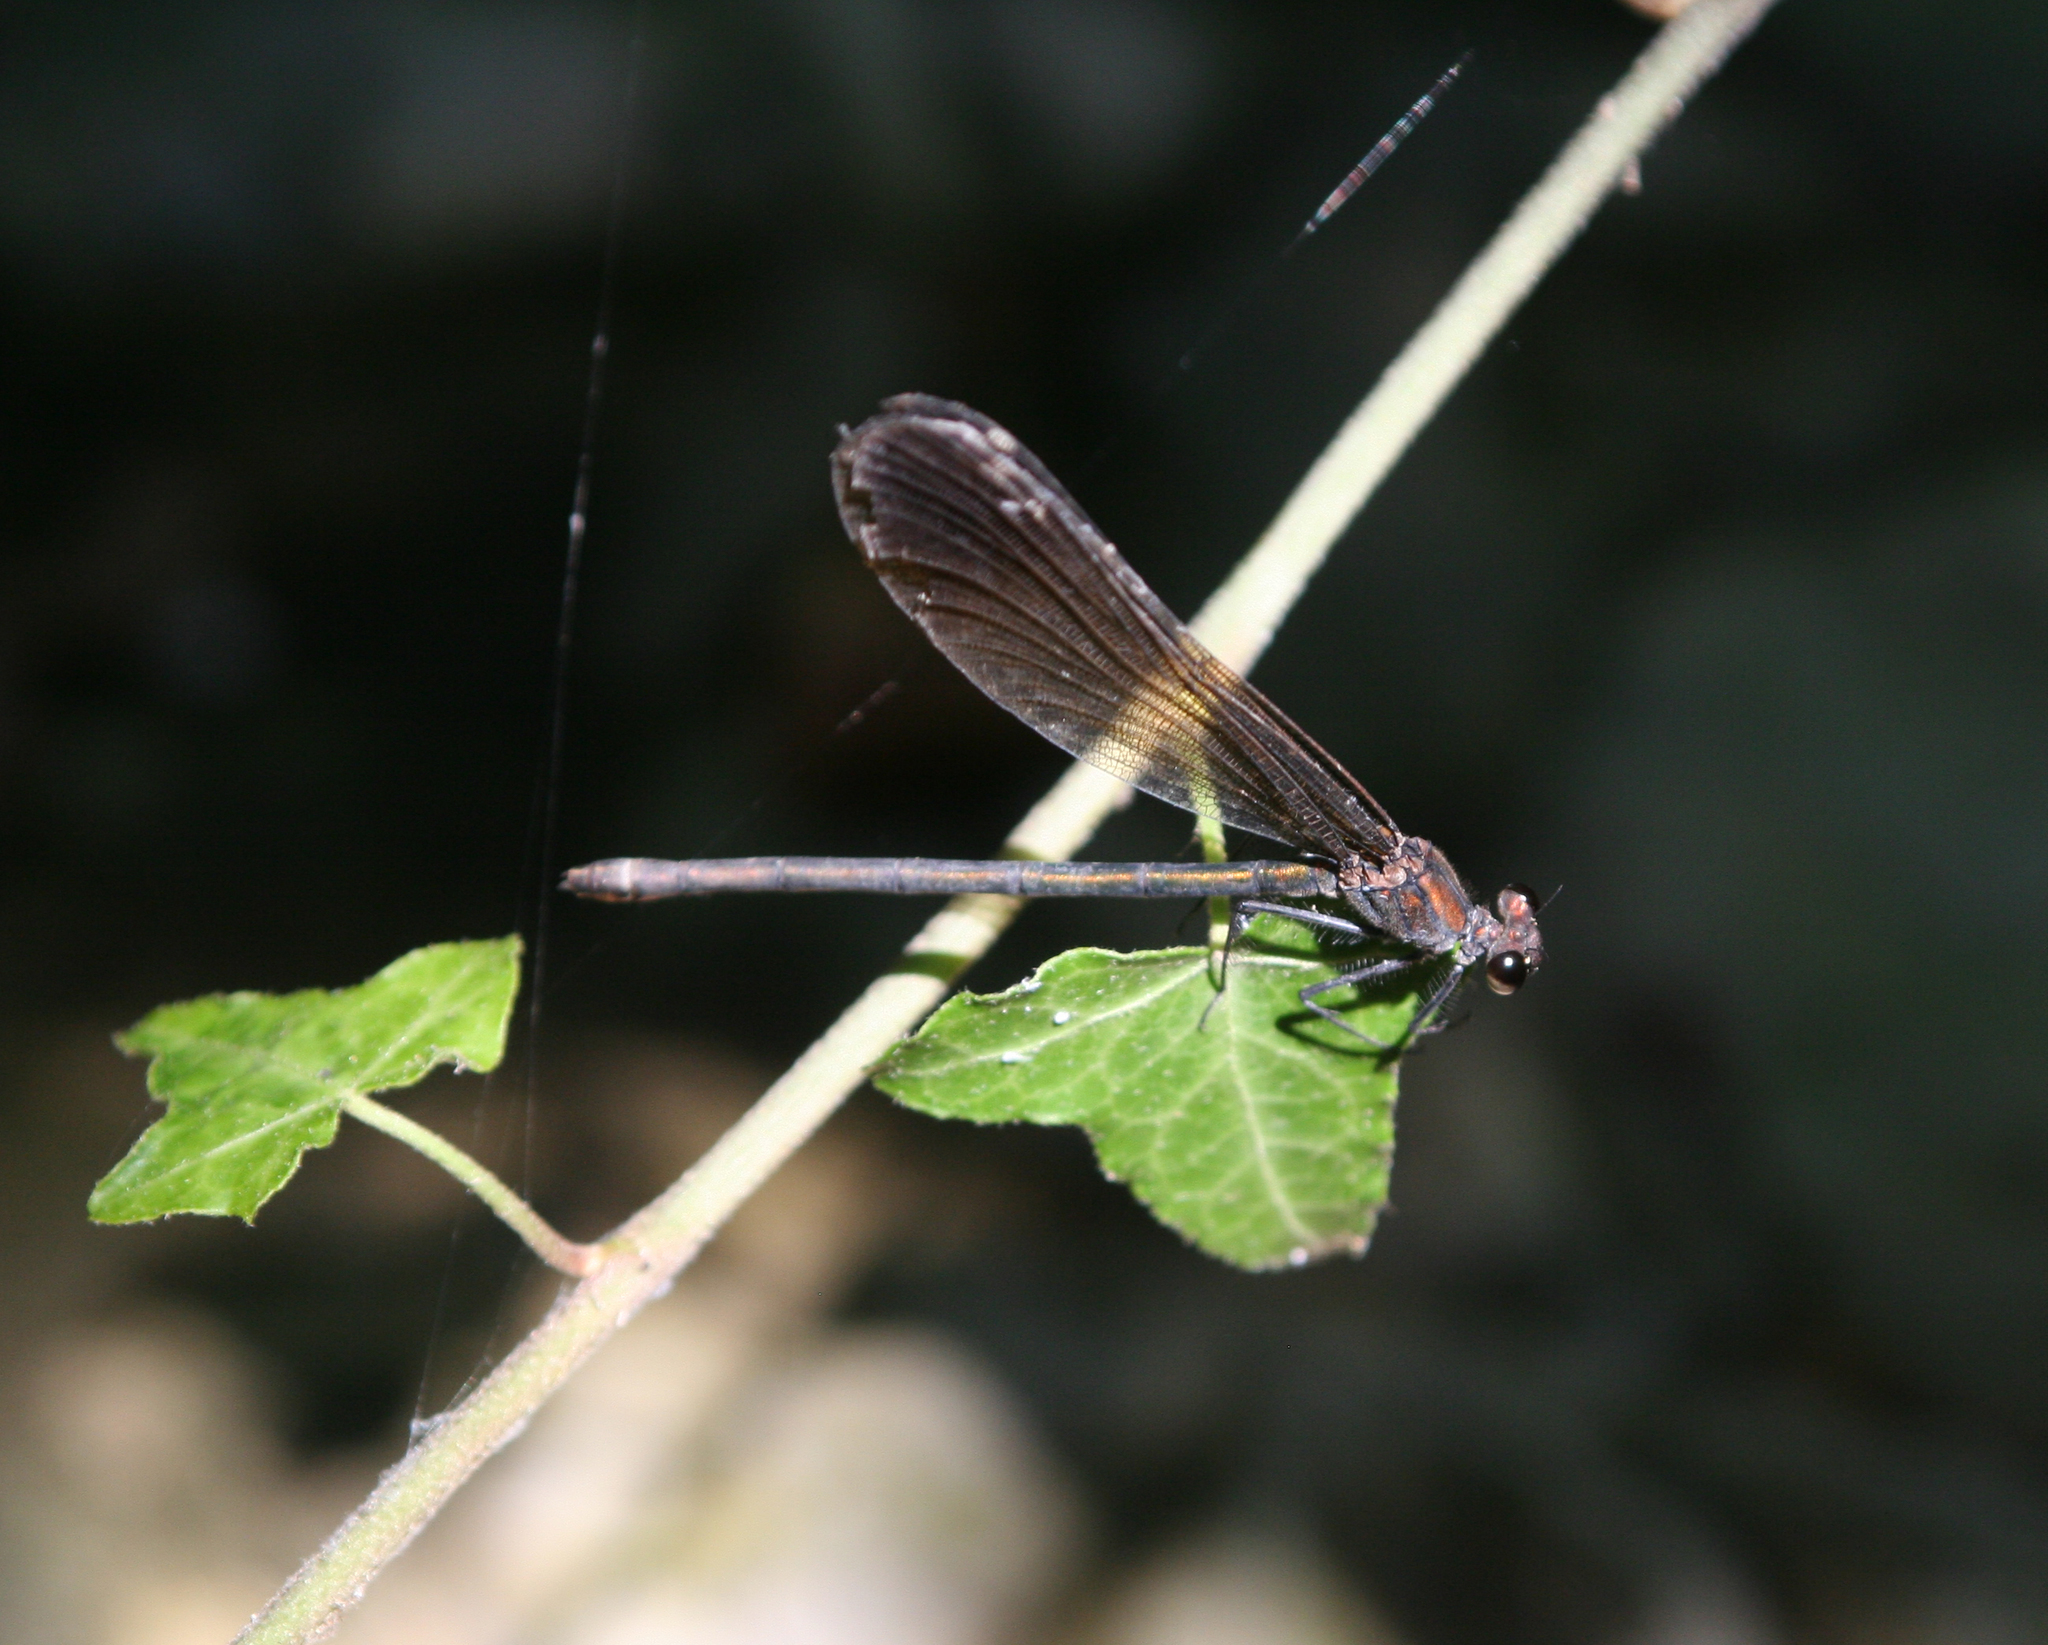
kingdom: Animalia
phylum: Arthropoda
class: Insecta
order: Odonata
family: Calopterygidae
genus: Calopteryx
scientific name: Calopteryx virgo
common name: Beautiful demoiselle
